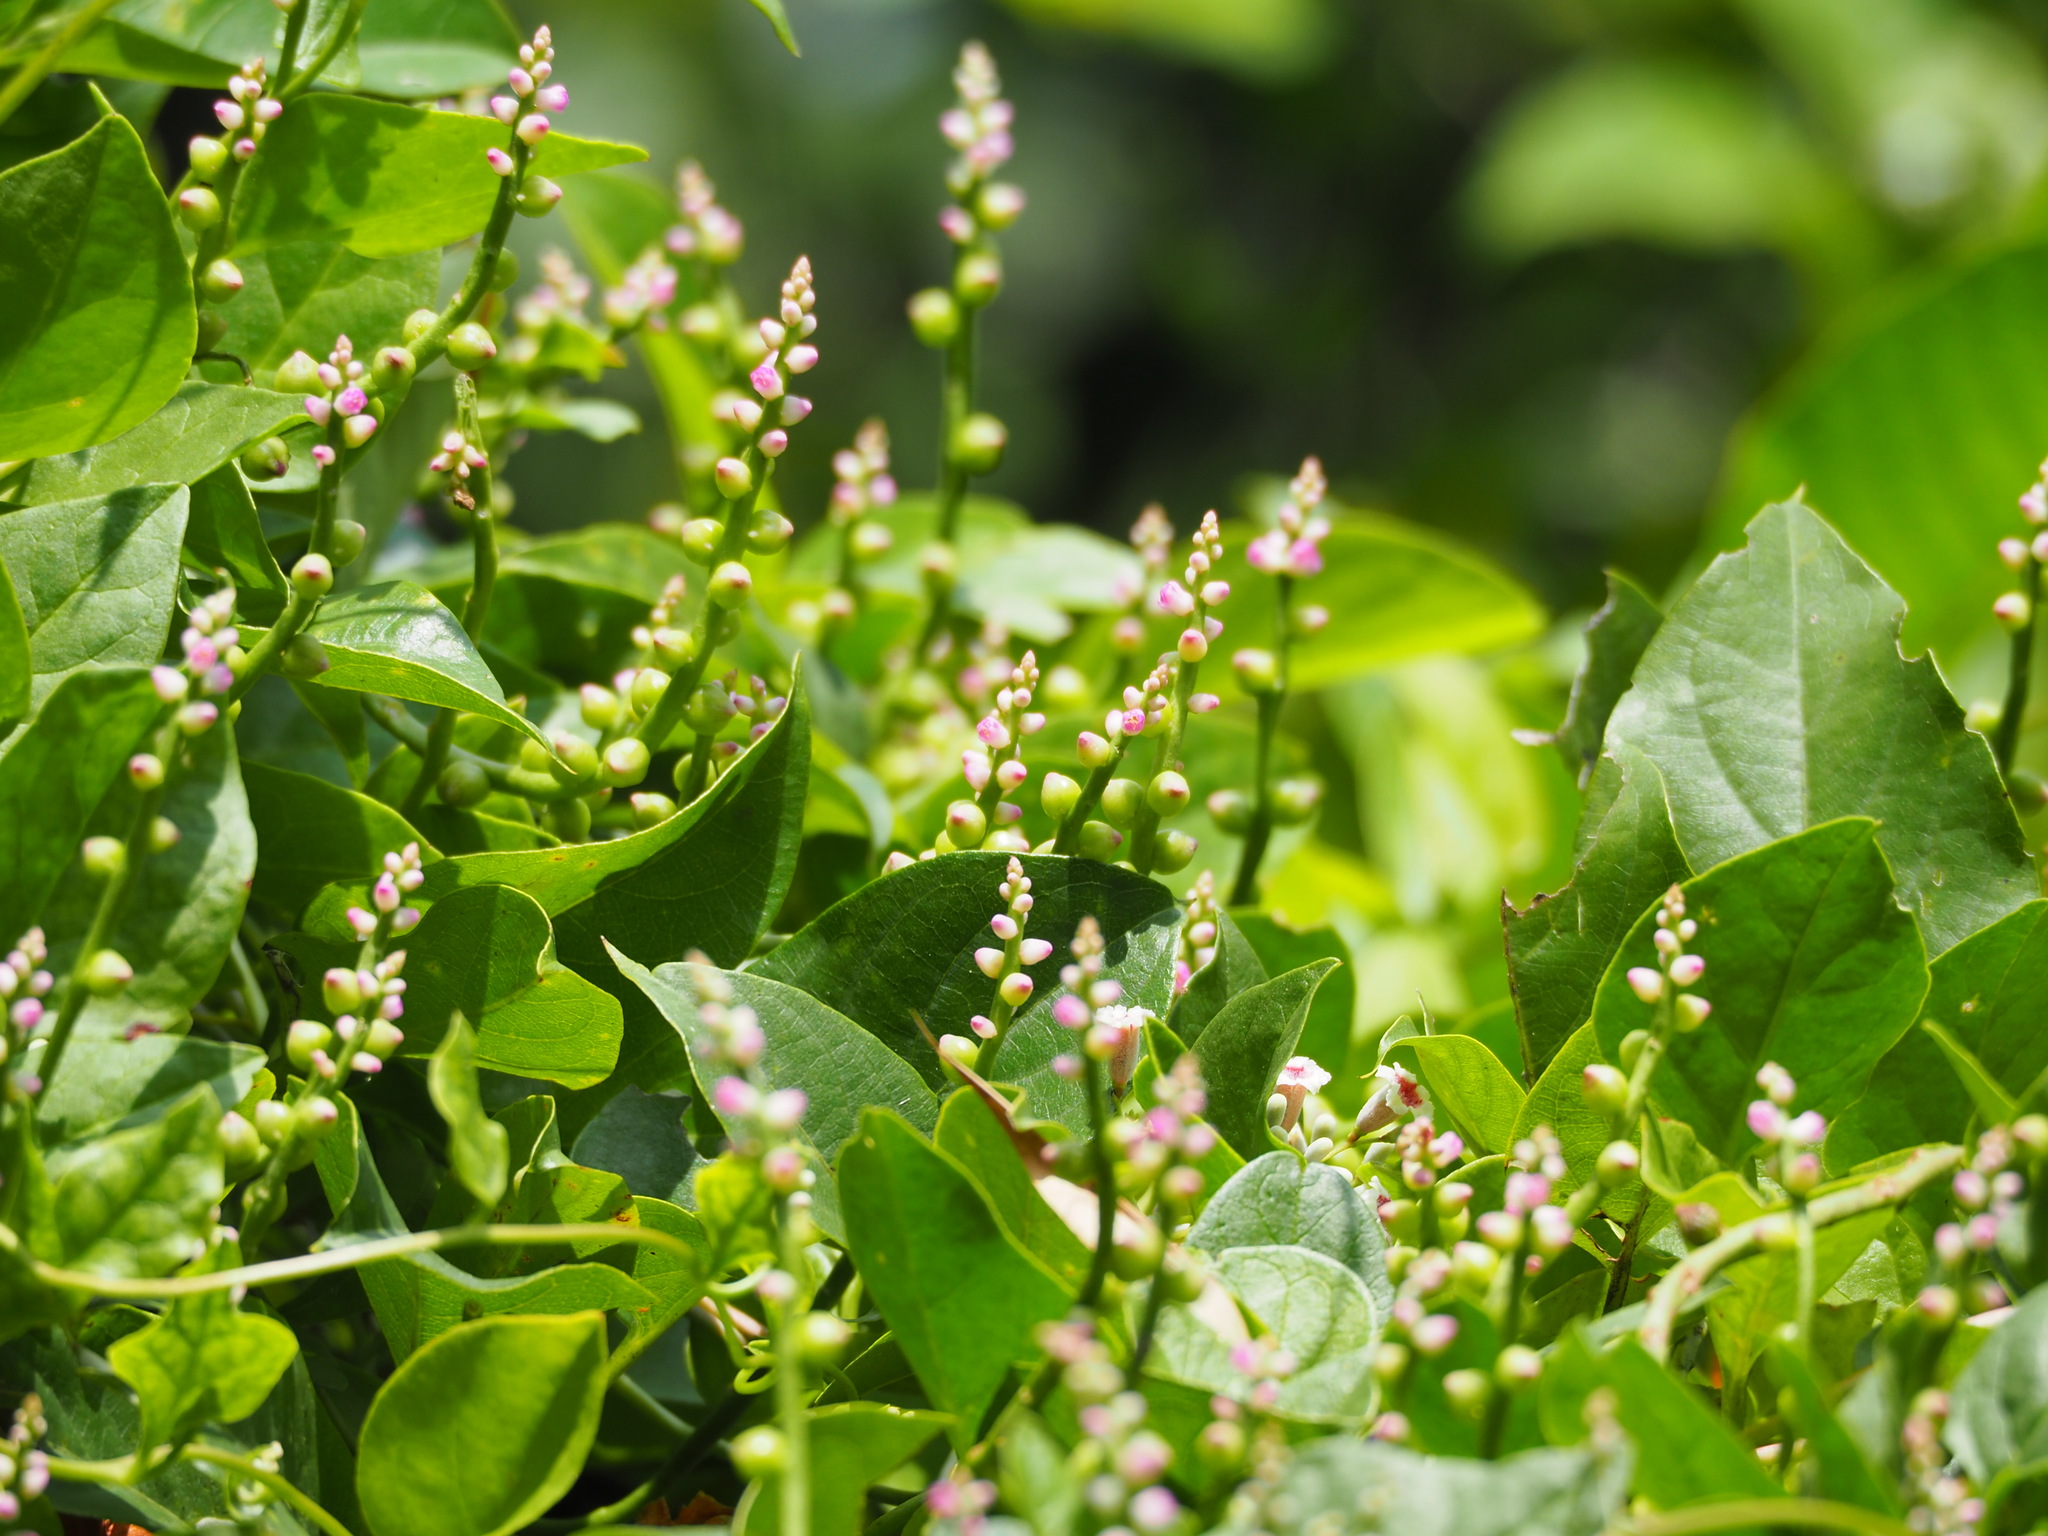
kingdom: Plantae
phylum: Tracheophyta
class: Magnoliopsida
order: Caryophyllales
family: Basellaceae
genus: Basella
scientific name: Basella alba
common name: Indian spinach
